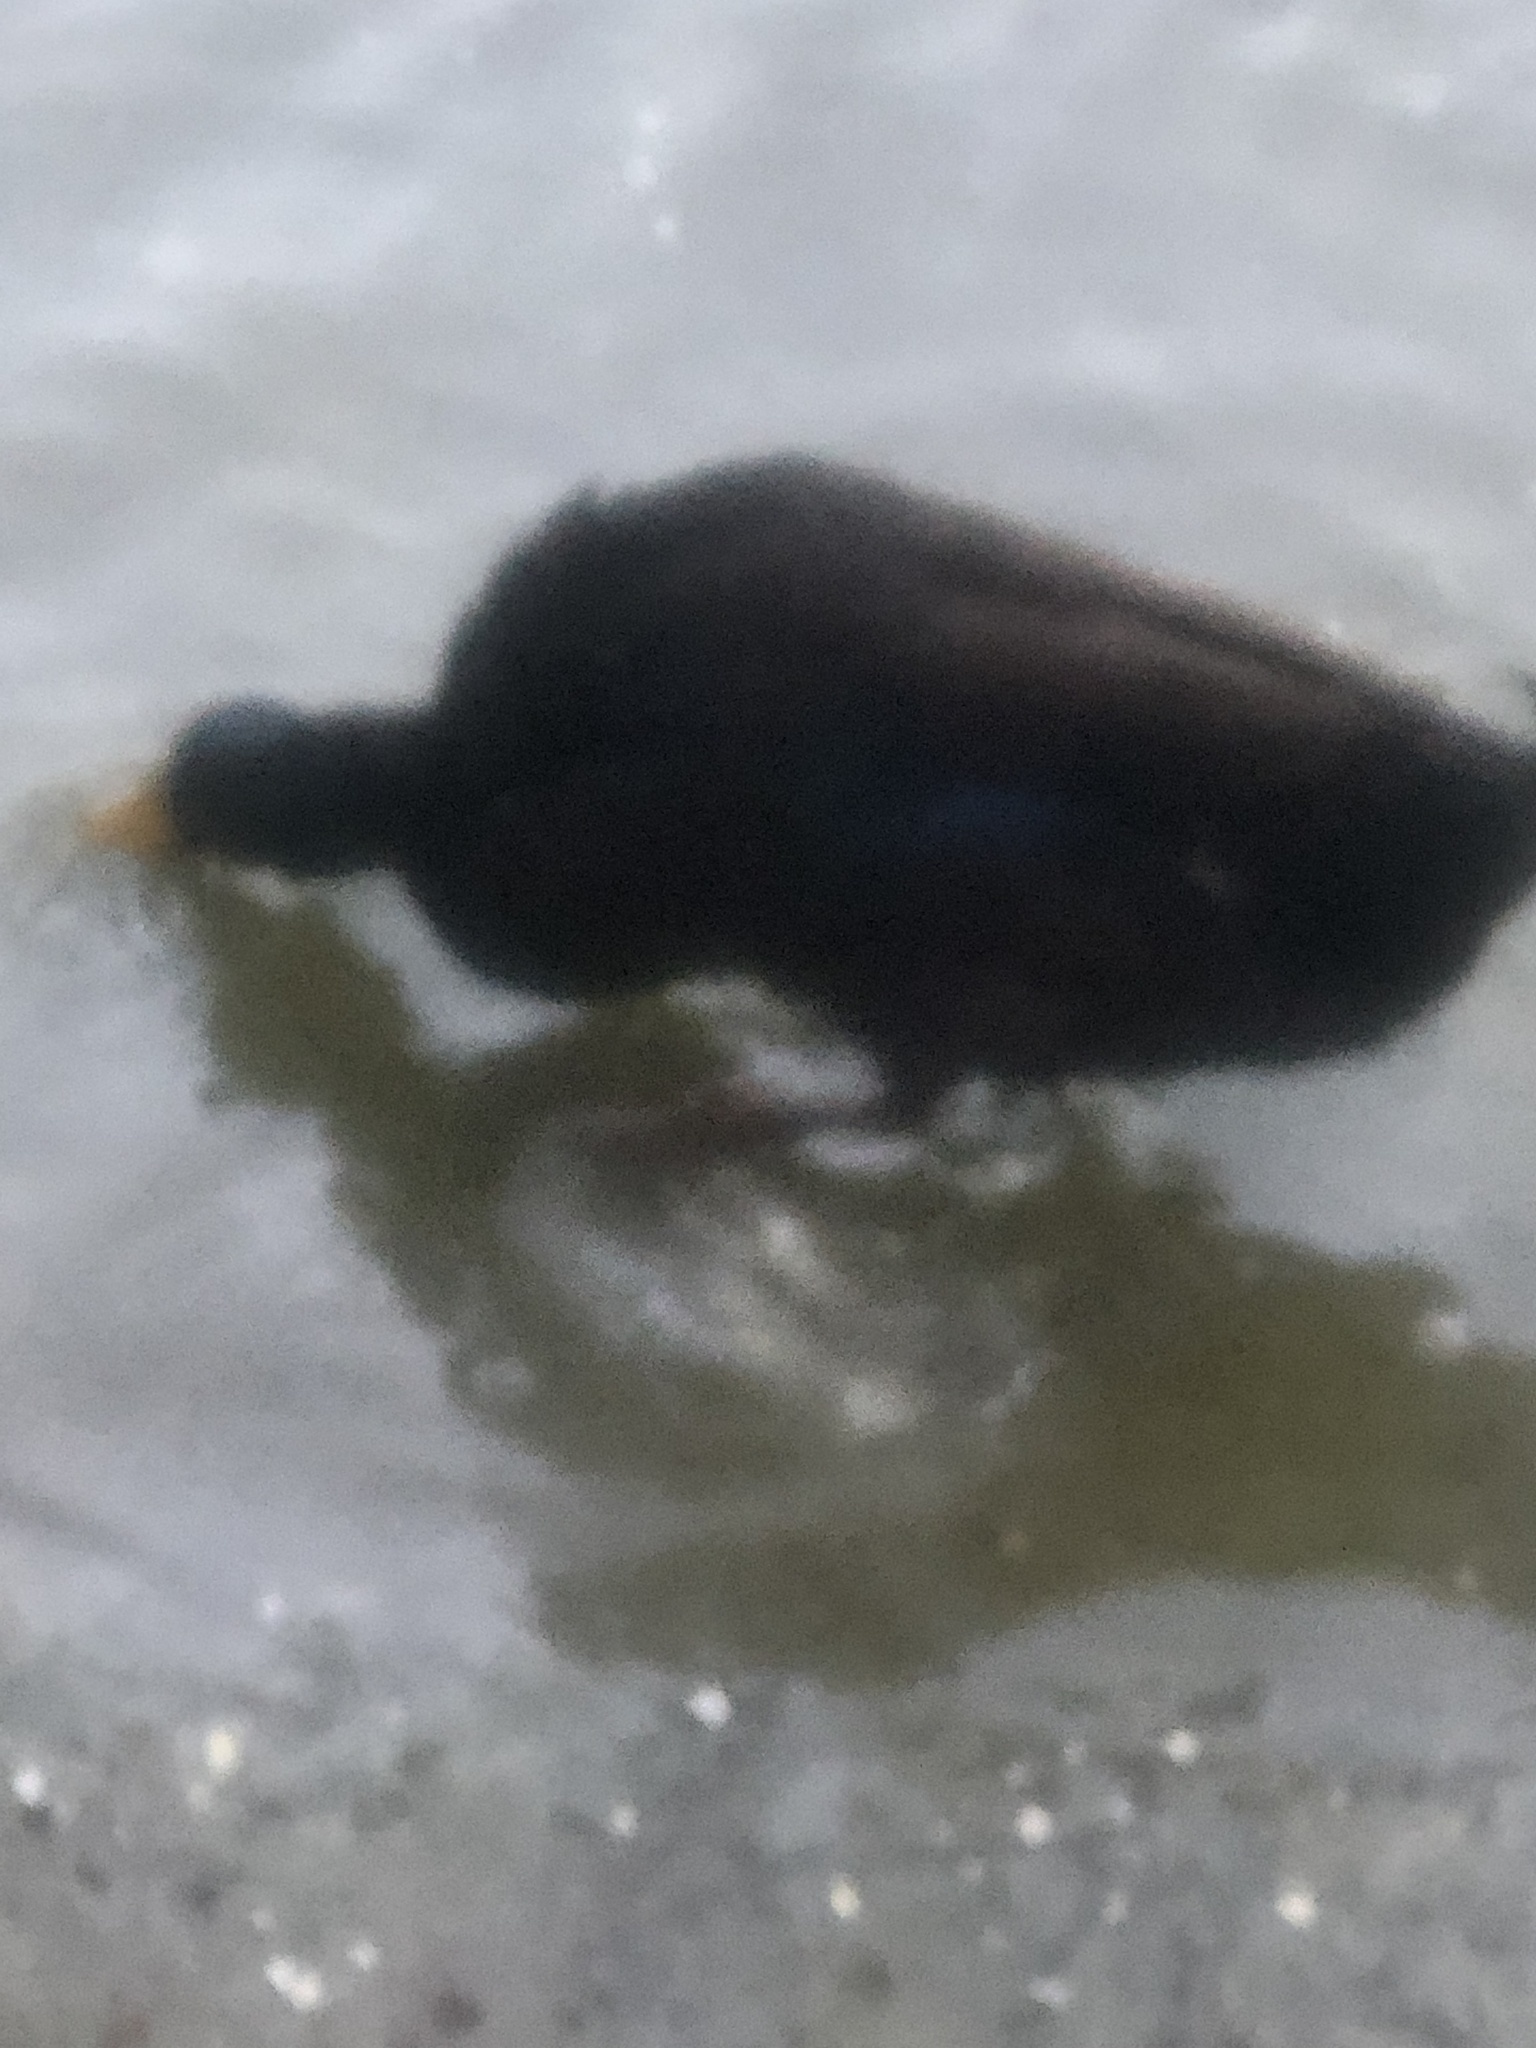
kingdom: Animalia
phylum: Chordata
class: Aves
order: Anseriformes
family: Anatidae
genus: Anas
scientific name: Anas platyrhynchos
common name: Mallard
